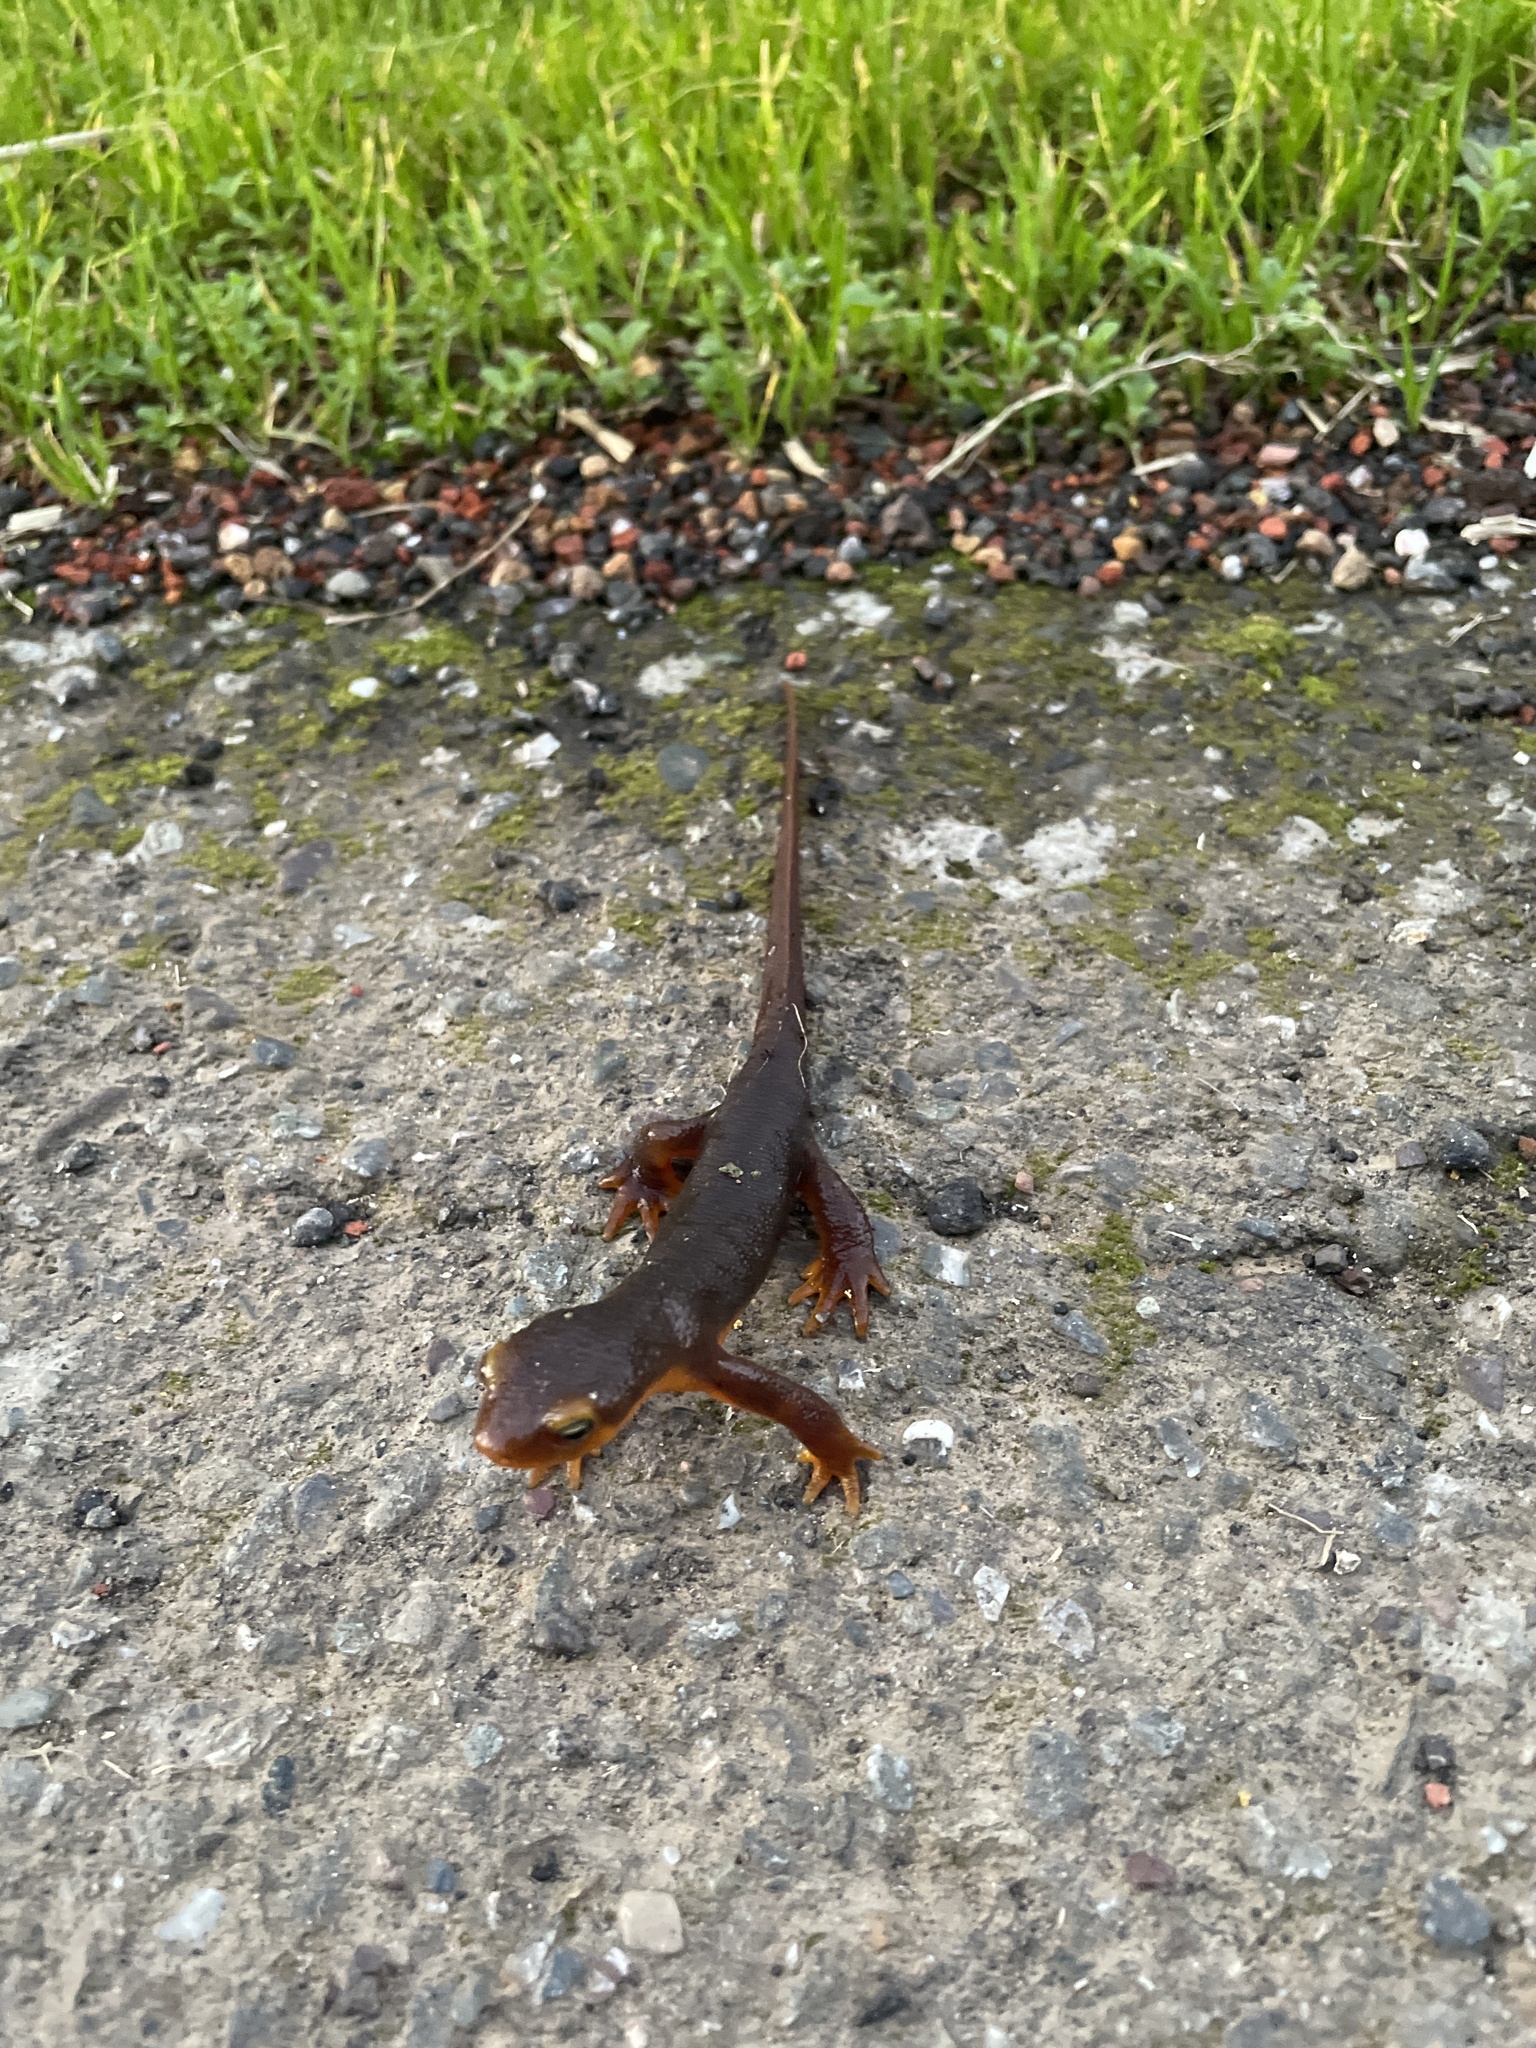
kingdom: Animalia
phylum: Chordata
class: Amphibia
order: Caudata
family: Salamandridae
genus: Taricha
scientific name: Taricha torosa
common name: California newt
